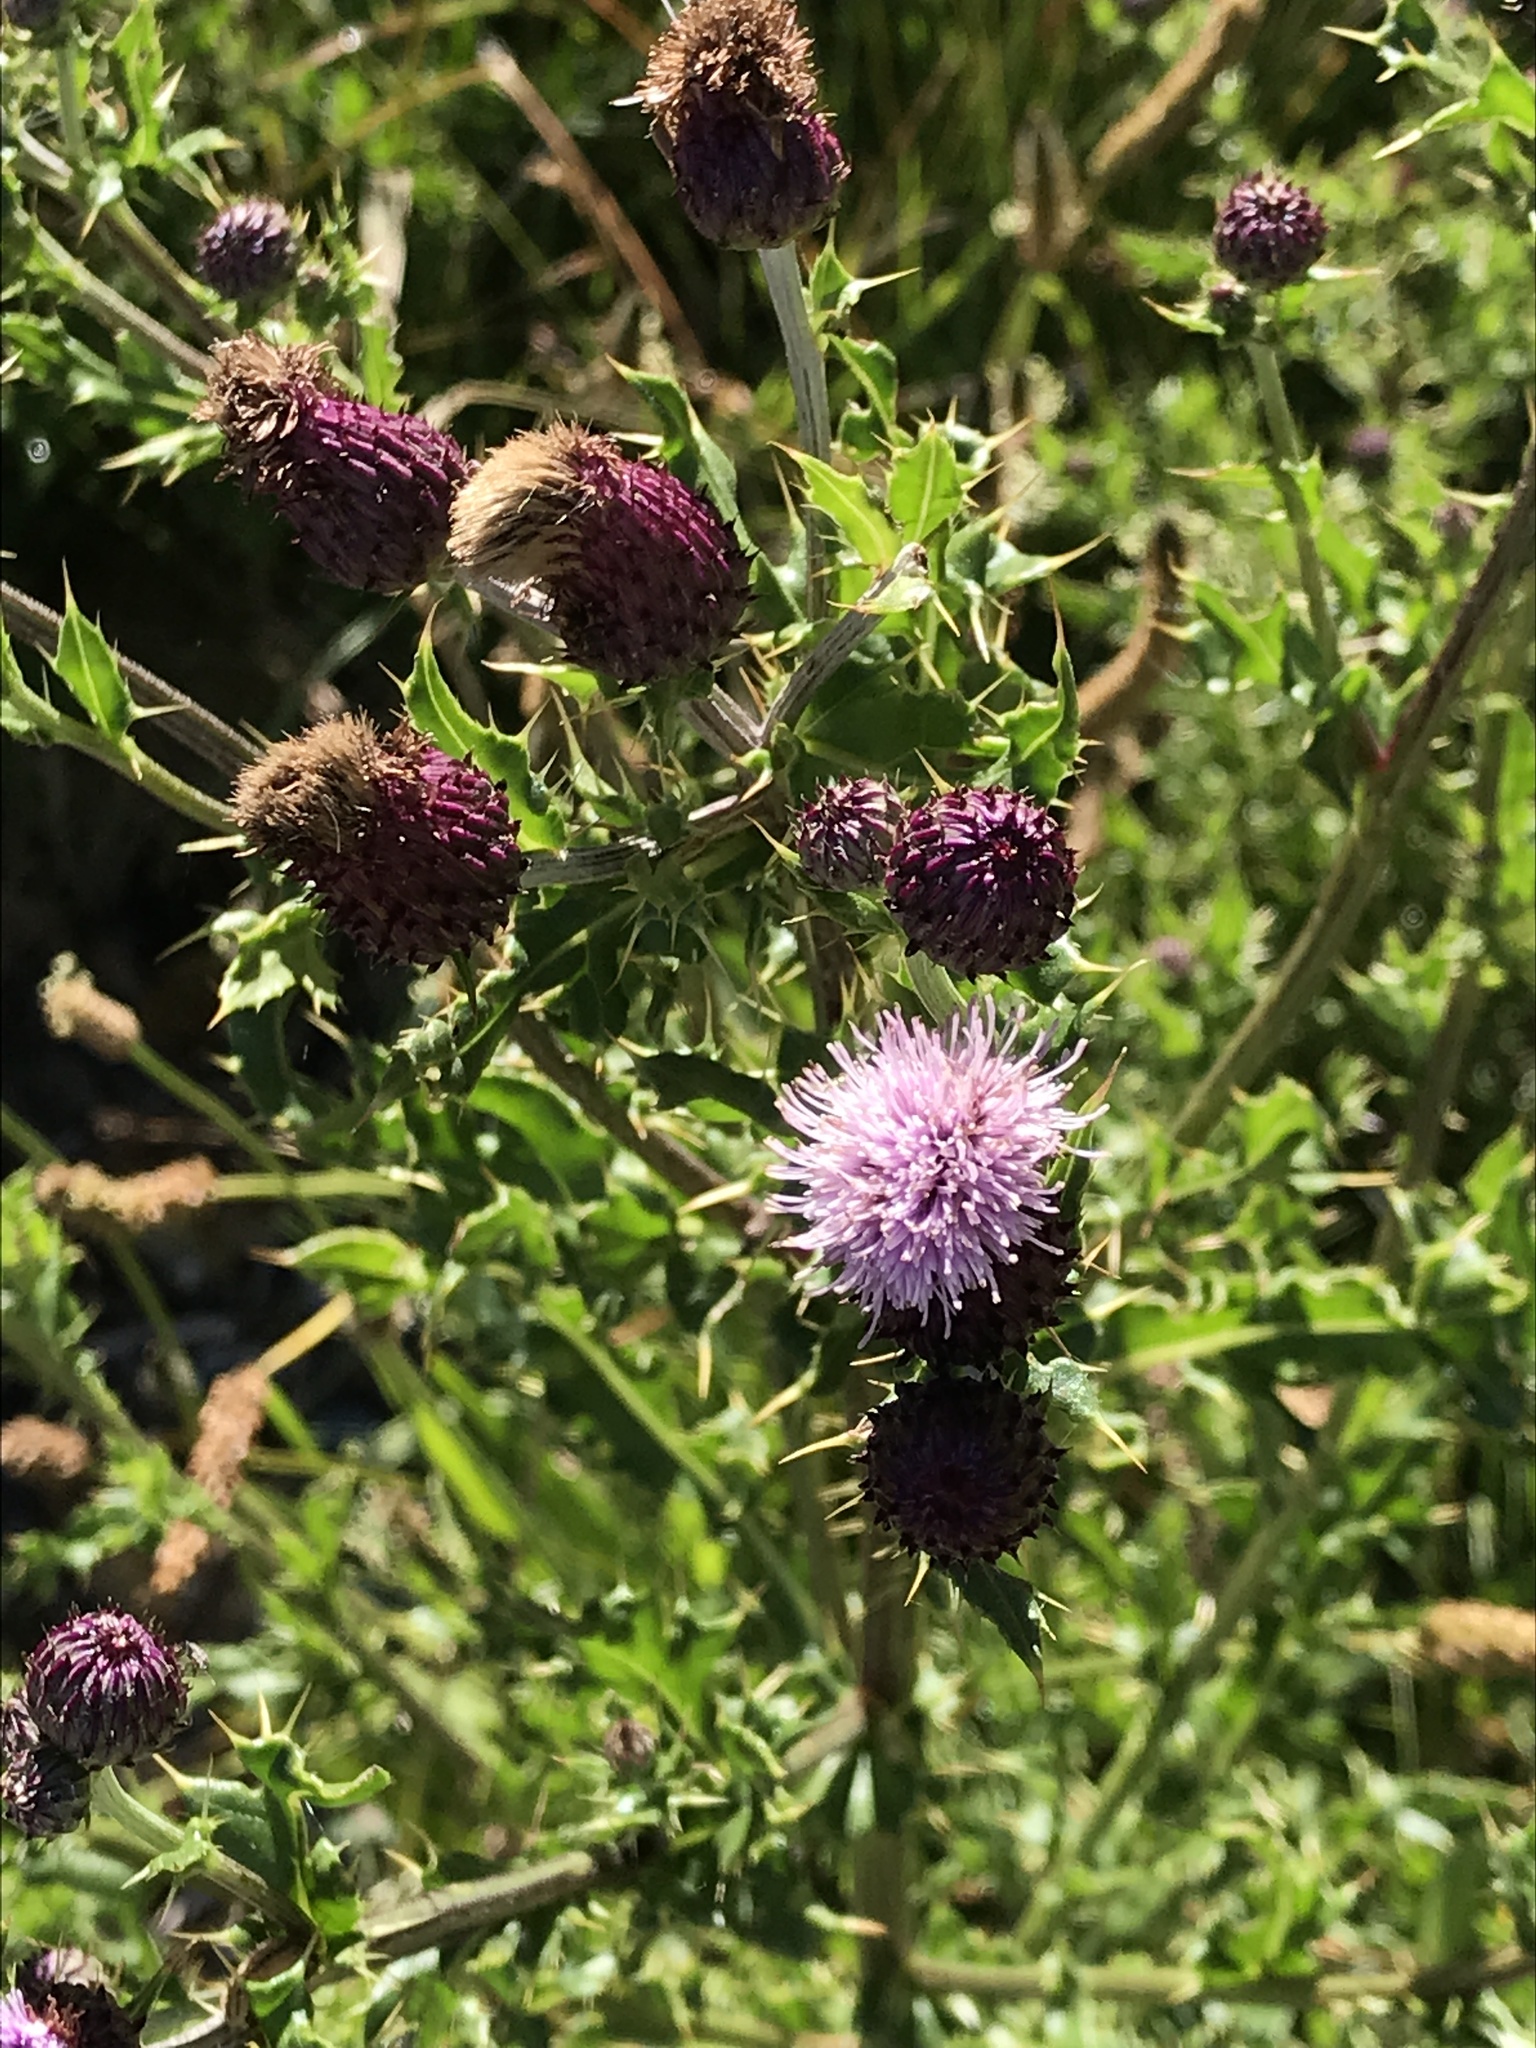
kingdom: Plantae
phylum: Tracheophyta
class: Magnoliopsida
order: Asterales
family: Asteraceae
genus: Cirsium
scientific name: Cirsium arvense
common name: Creeping thistle
